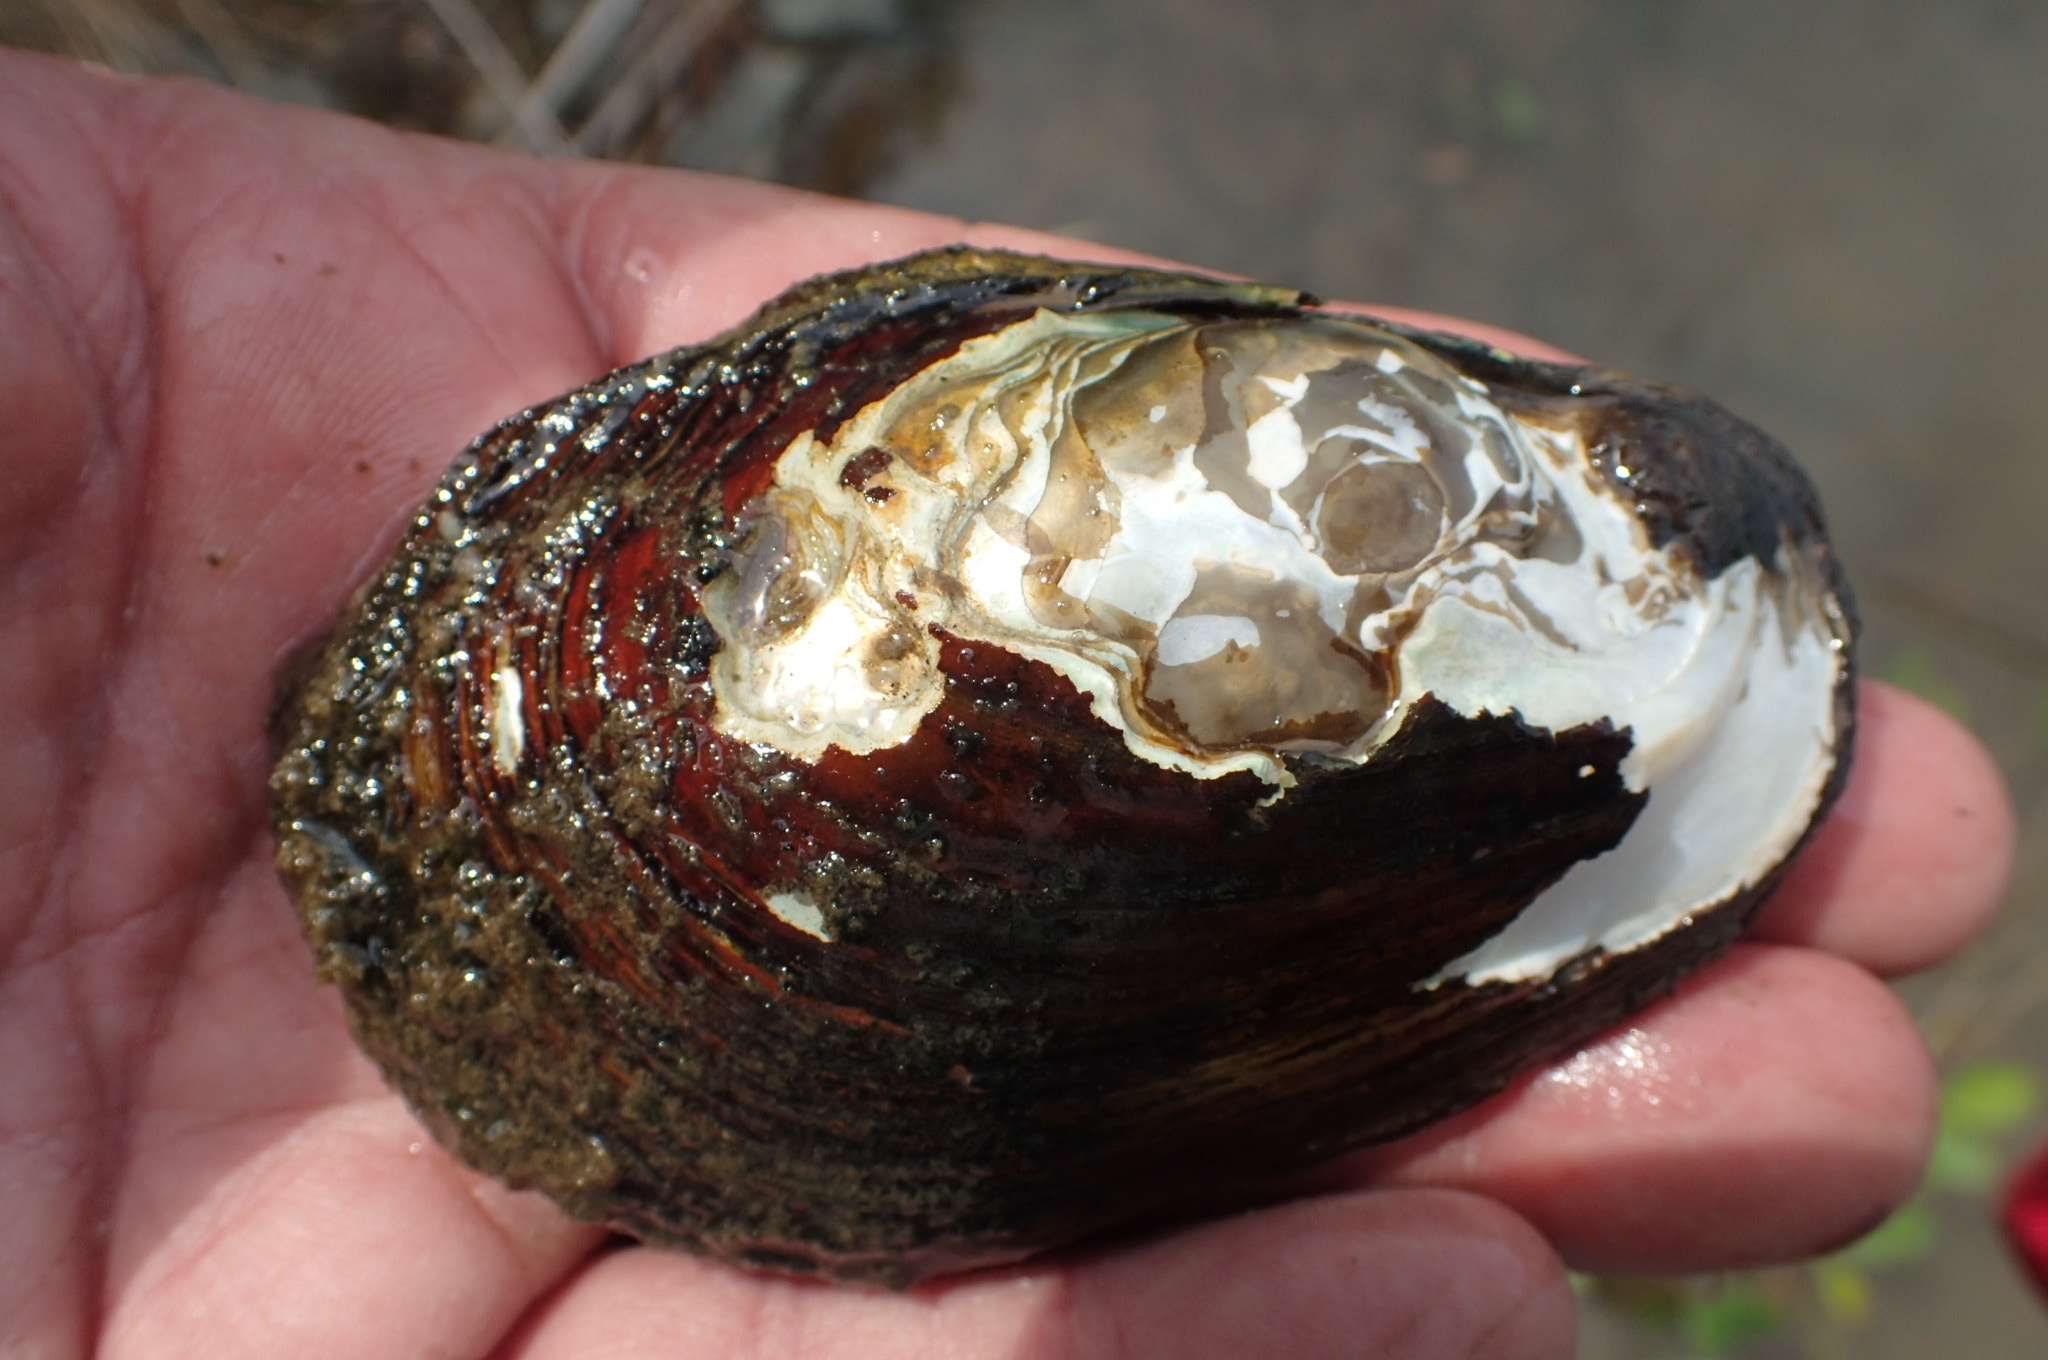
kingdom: Animalia
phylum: Mollusca
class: Bivalvia
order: Unionida
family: Unionidae
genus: Lampsilis
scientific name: Lampsilis siliquoidea
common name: Fatmucket
